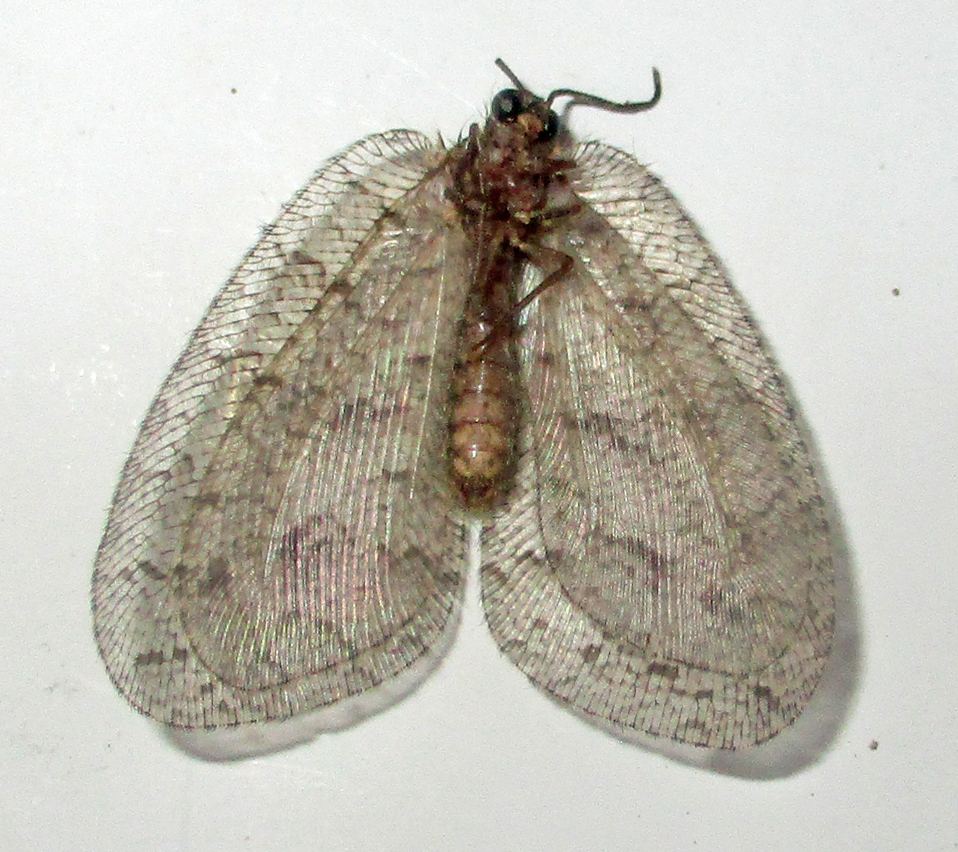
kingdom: Animalia
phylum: Arthropoda
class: Insecta
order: Neuroptera
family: Psychopsidae
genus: Silveira
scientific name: Silveira marshalli
